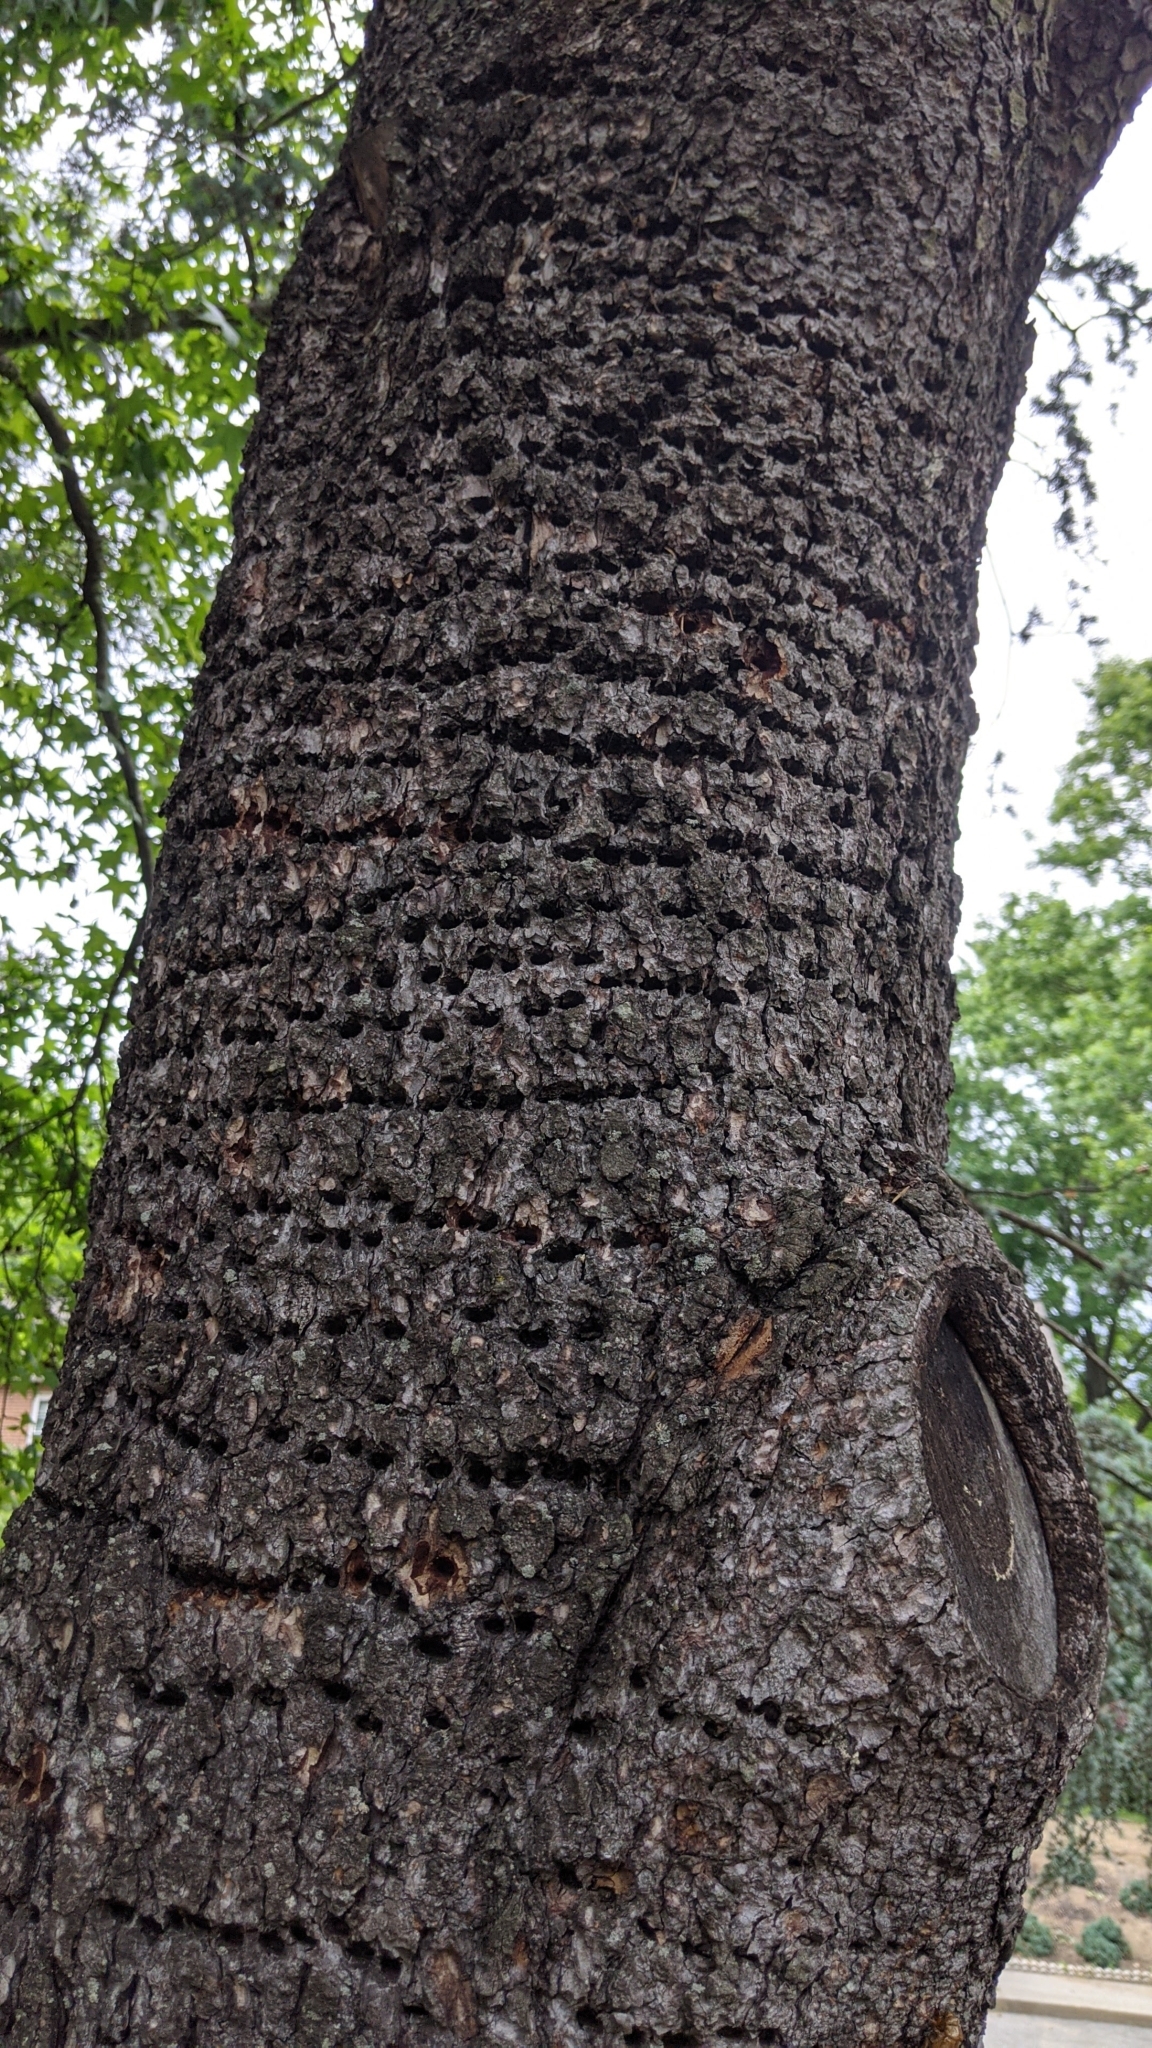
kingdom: Animalia
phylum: Chordata
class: Aves
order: Piciformes
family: Picidae
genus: Sphyrapicus
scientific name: Sphyrapicus varius
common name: Yellow-bellied sapsucker
